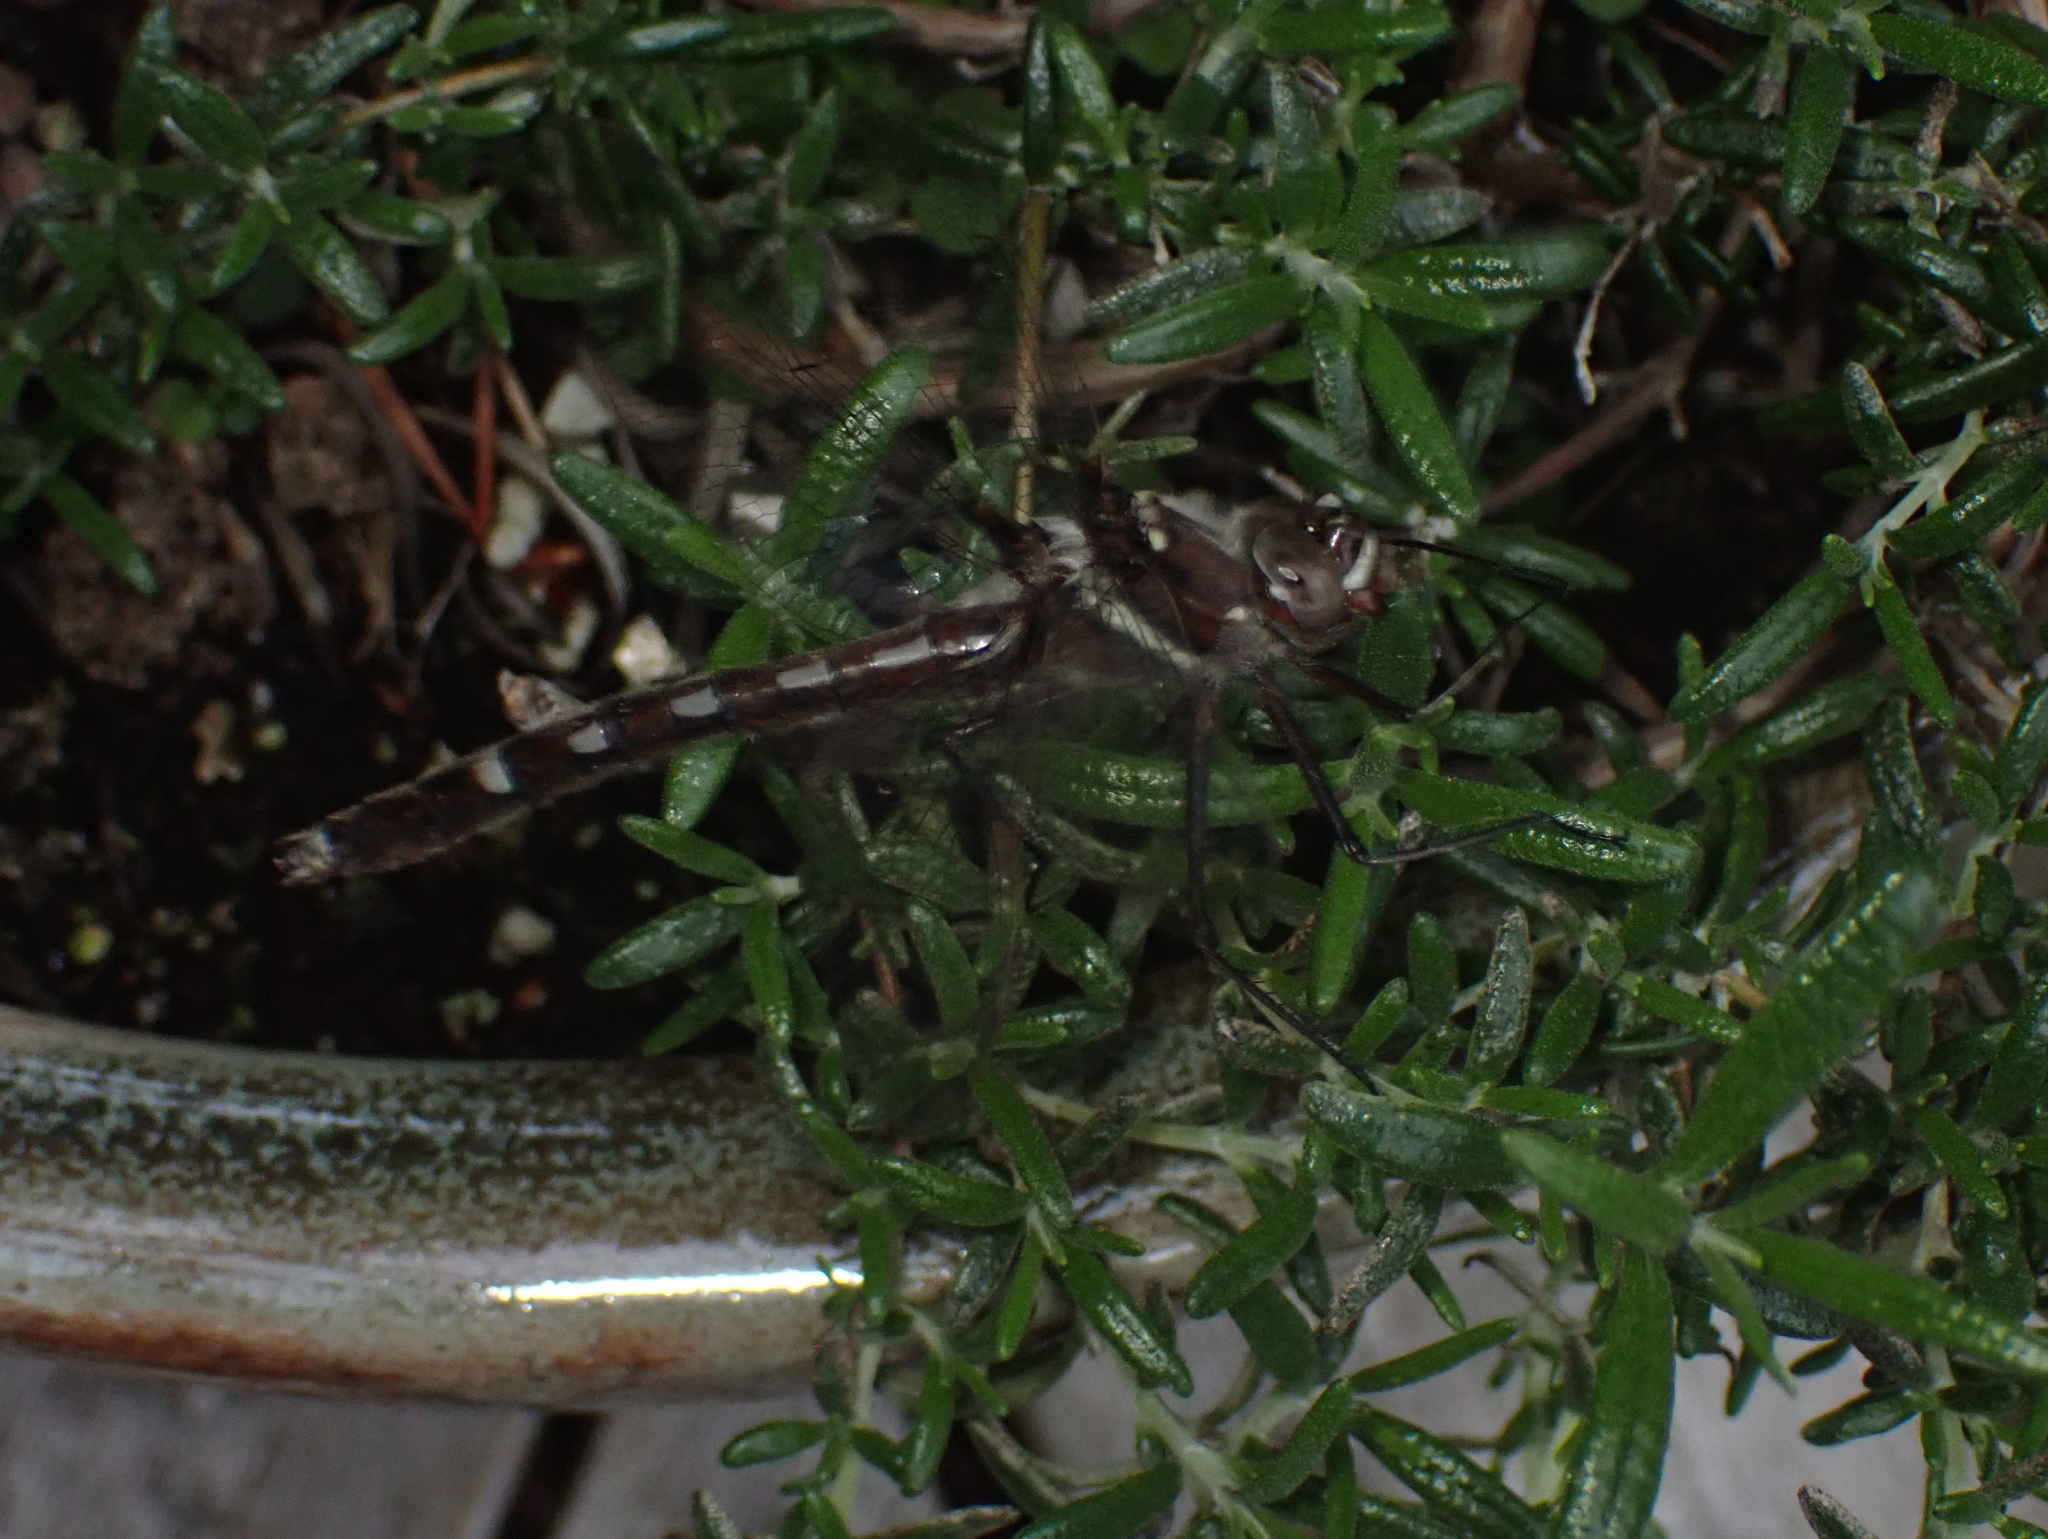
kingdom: Animalia
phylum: Arthropoda
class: Insecta
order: Odonata
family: Macromiidae
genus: Didymops
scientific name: Didymops transversa
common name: Stream cruiser
